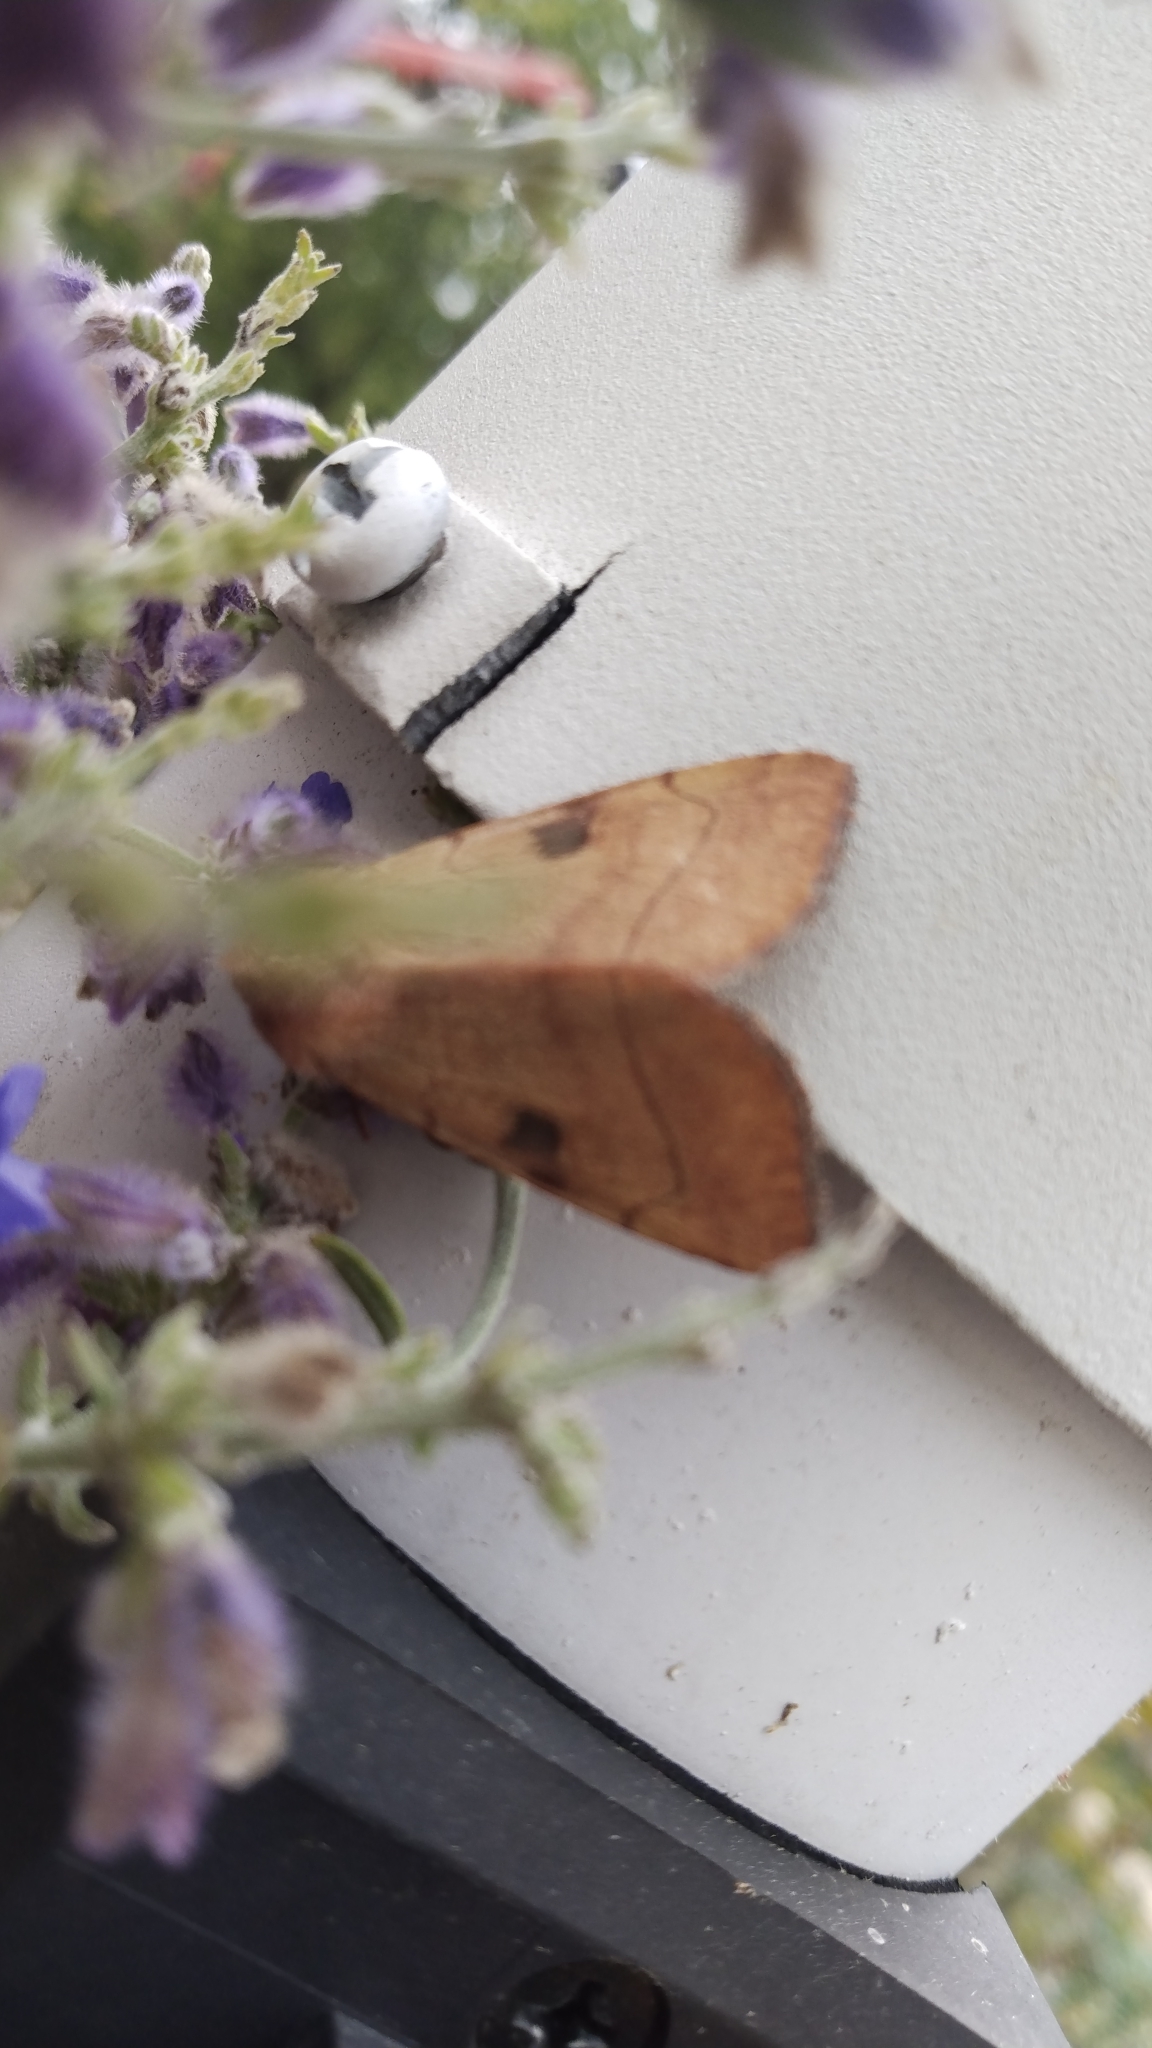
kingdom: Animalia
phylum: Arthropoda
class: Insecta
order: Lepidoptera
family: Noctuidae
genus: Choephora
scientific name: Choephora fungorum
